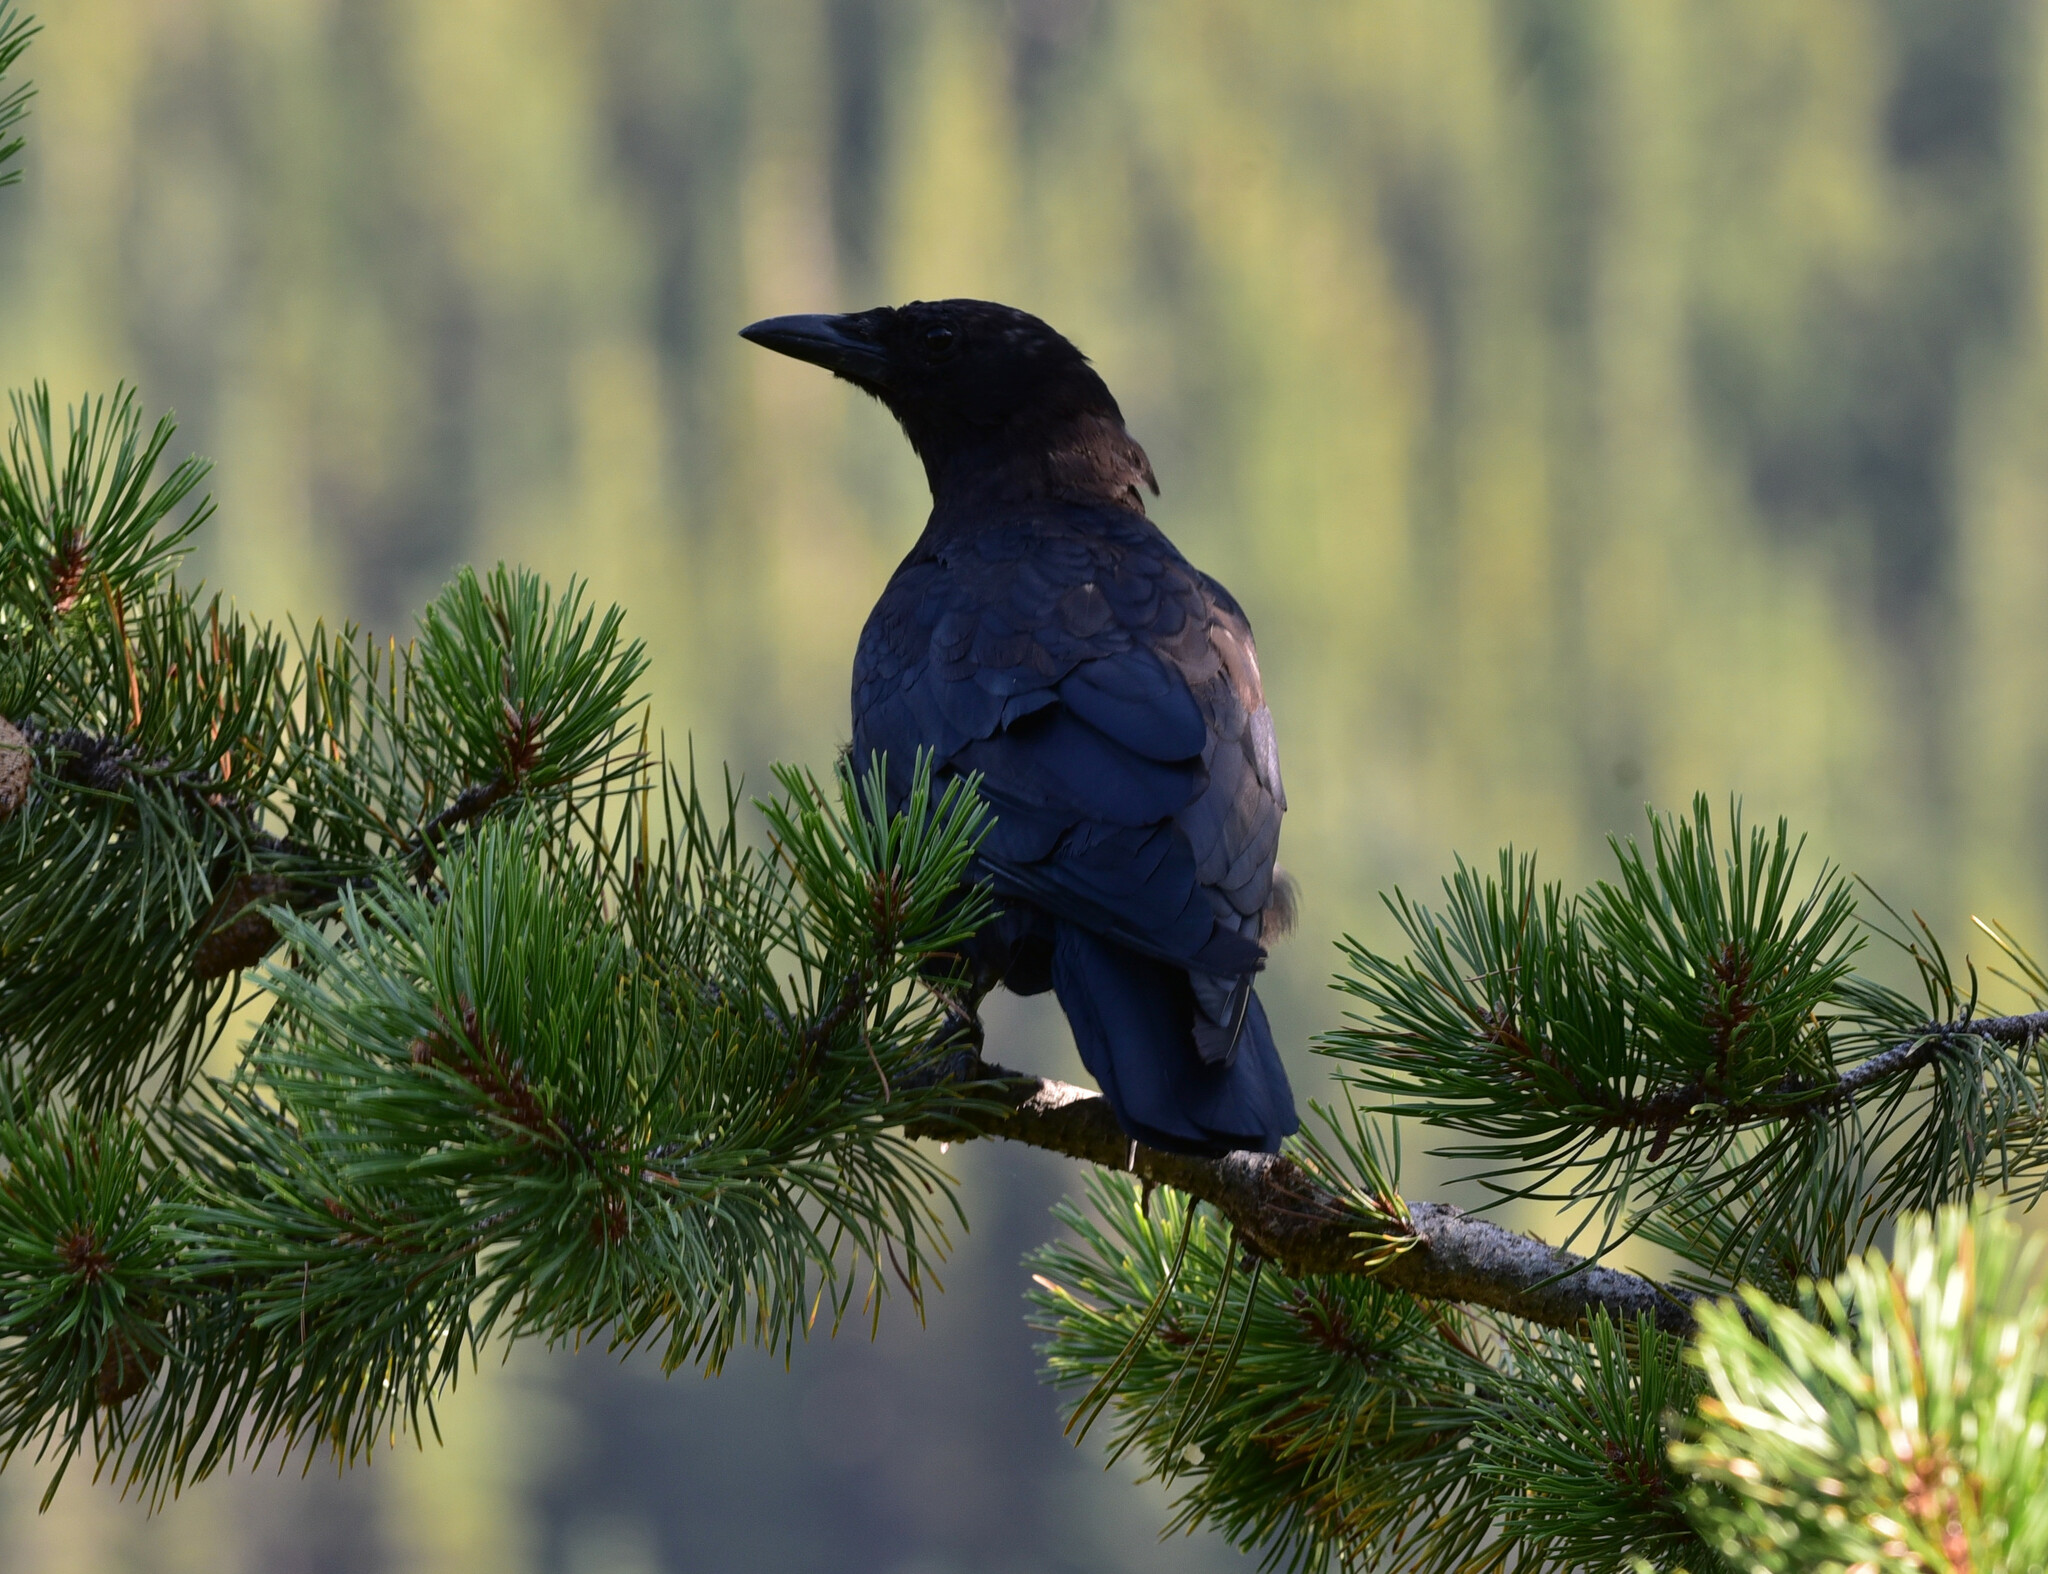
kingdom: Animalia
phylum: Chordata
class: Aves
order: Passeriformes
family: Corvidae
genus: Corvus
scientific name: Corvus brachyrhynchos
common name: American crow
